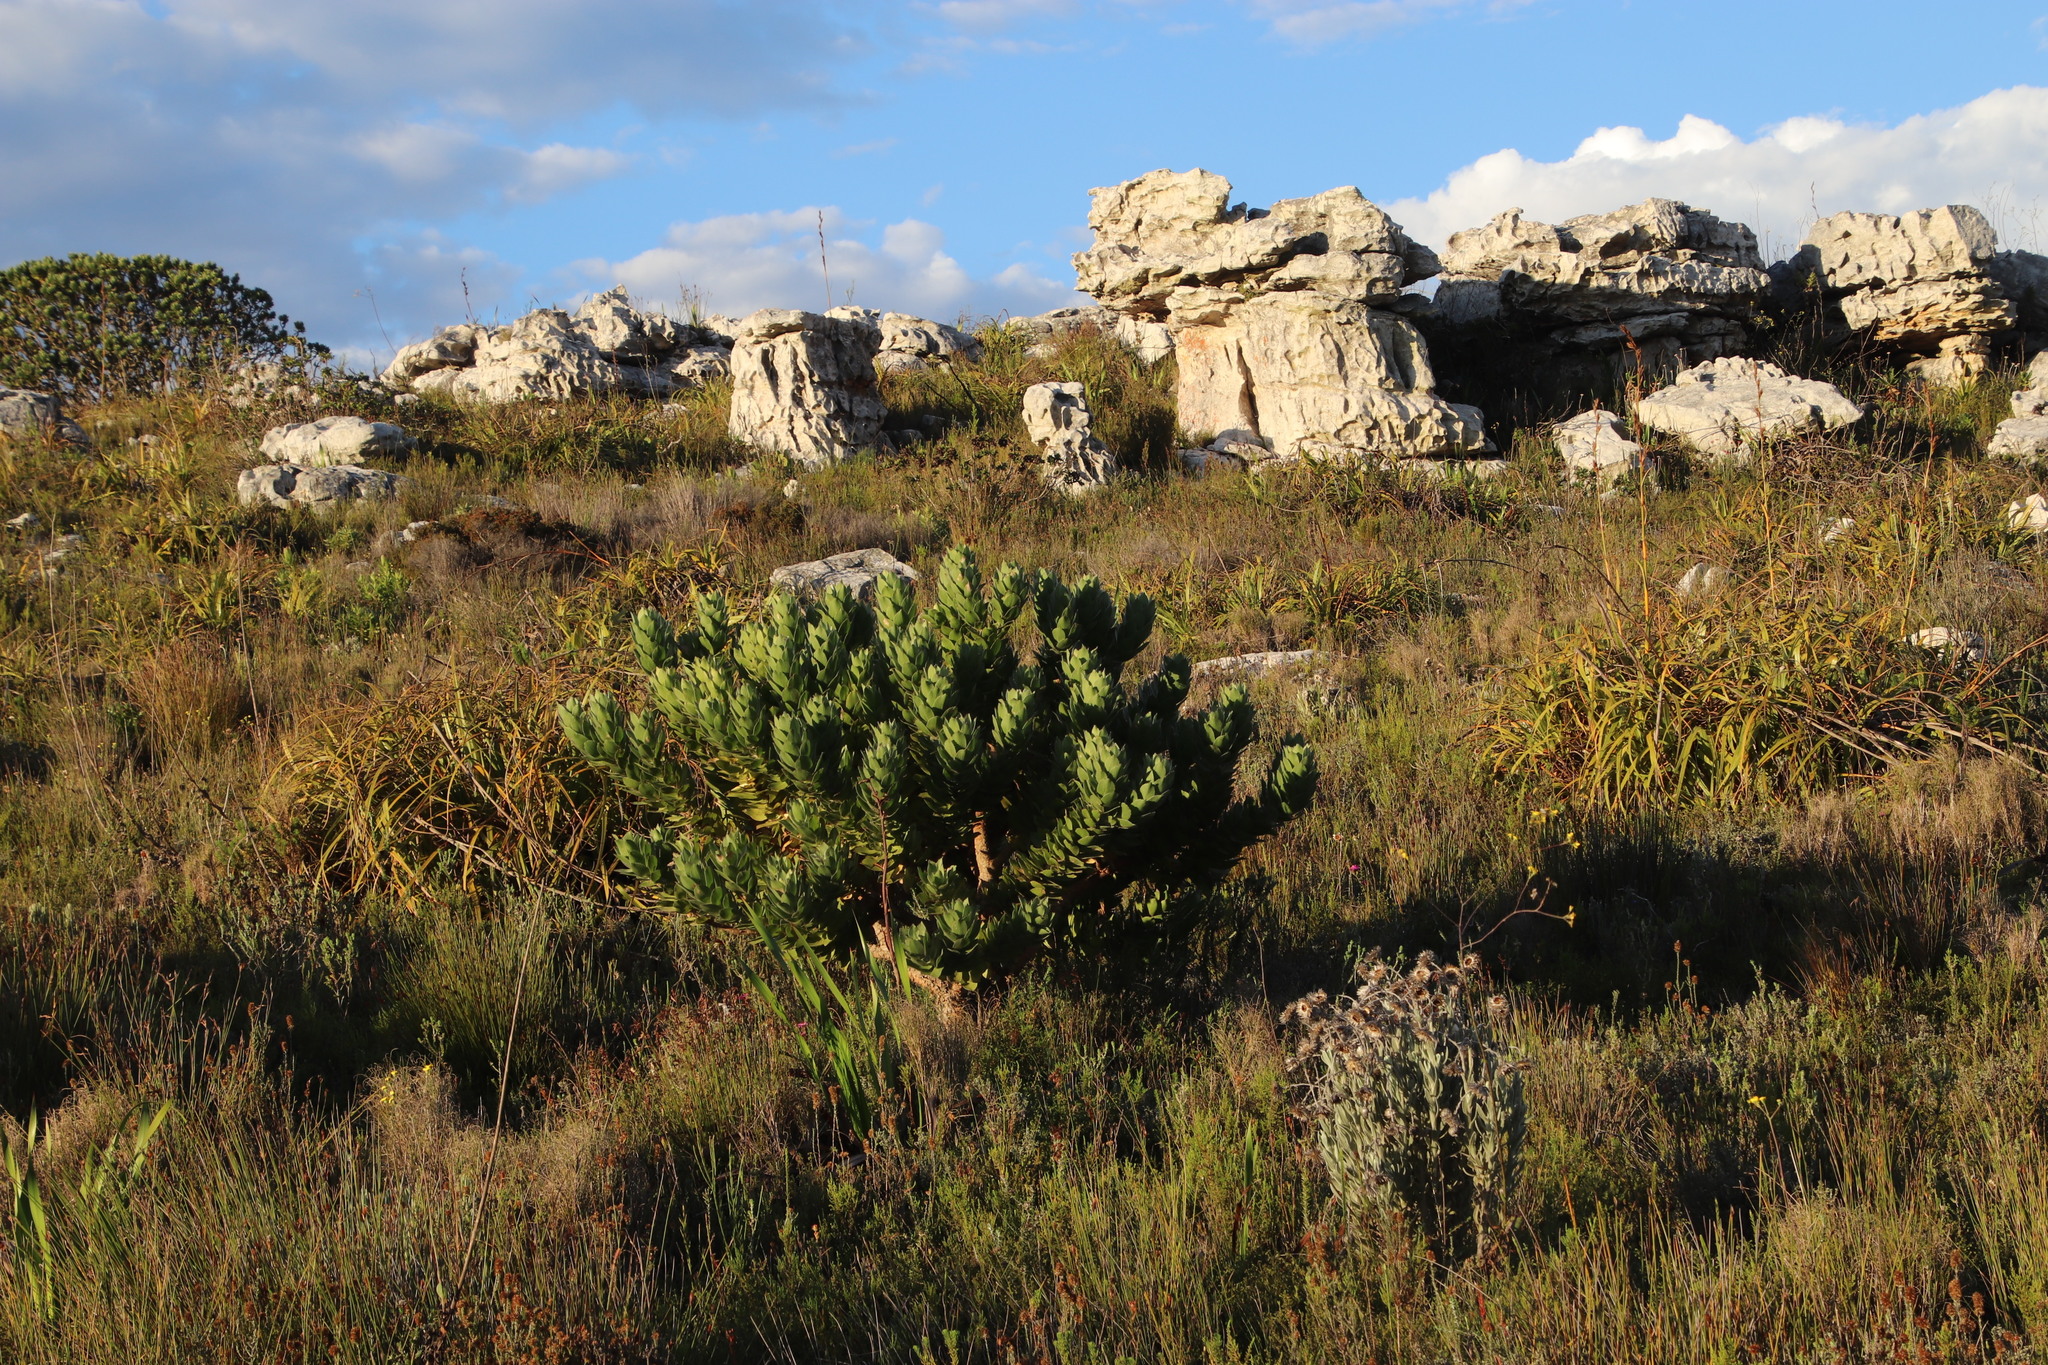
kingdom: Plantae
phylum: Tracheophyta
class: Magnoliopsida
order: Proteales
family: Proteaceae
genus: Leucospermum
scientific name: Leucospermum conocarpodendron
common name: Tree pincushion
